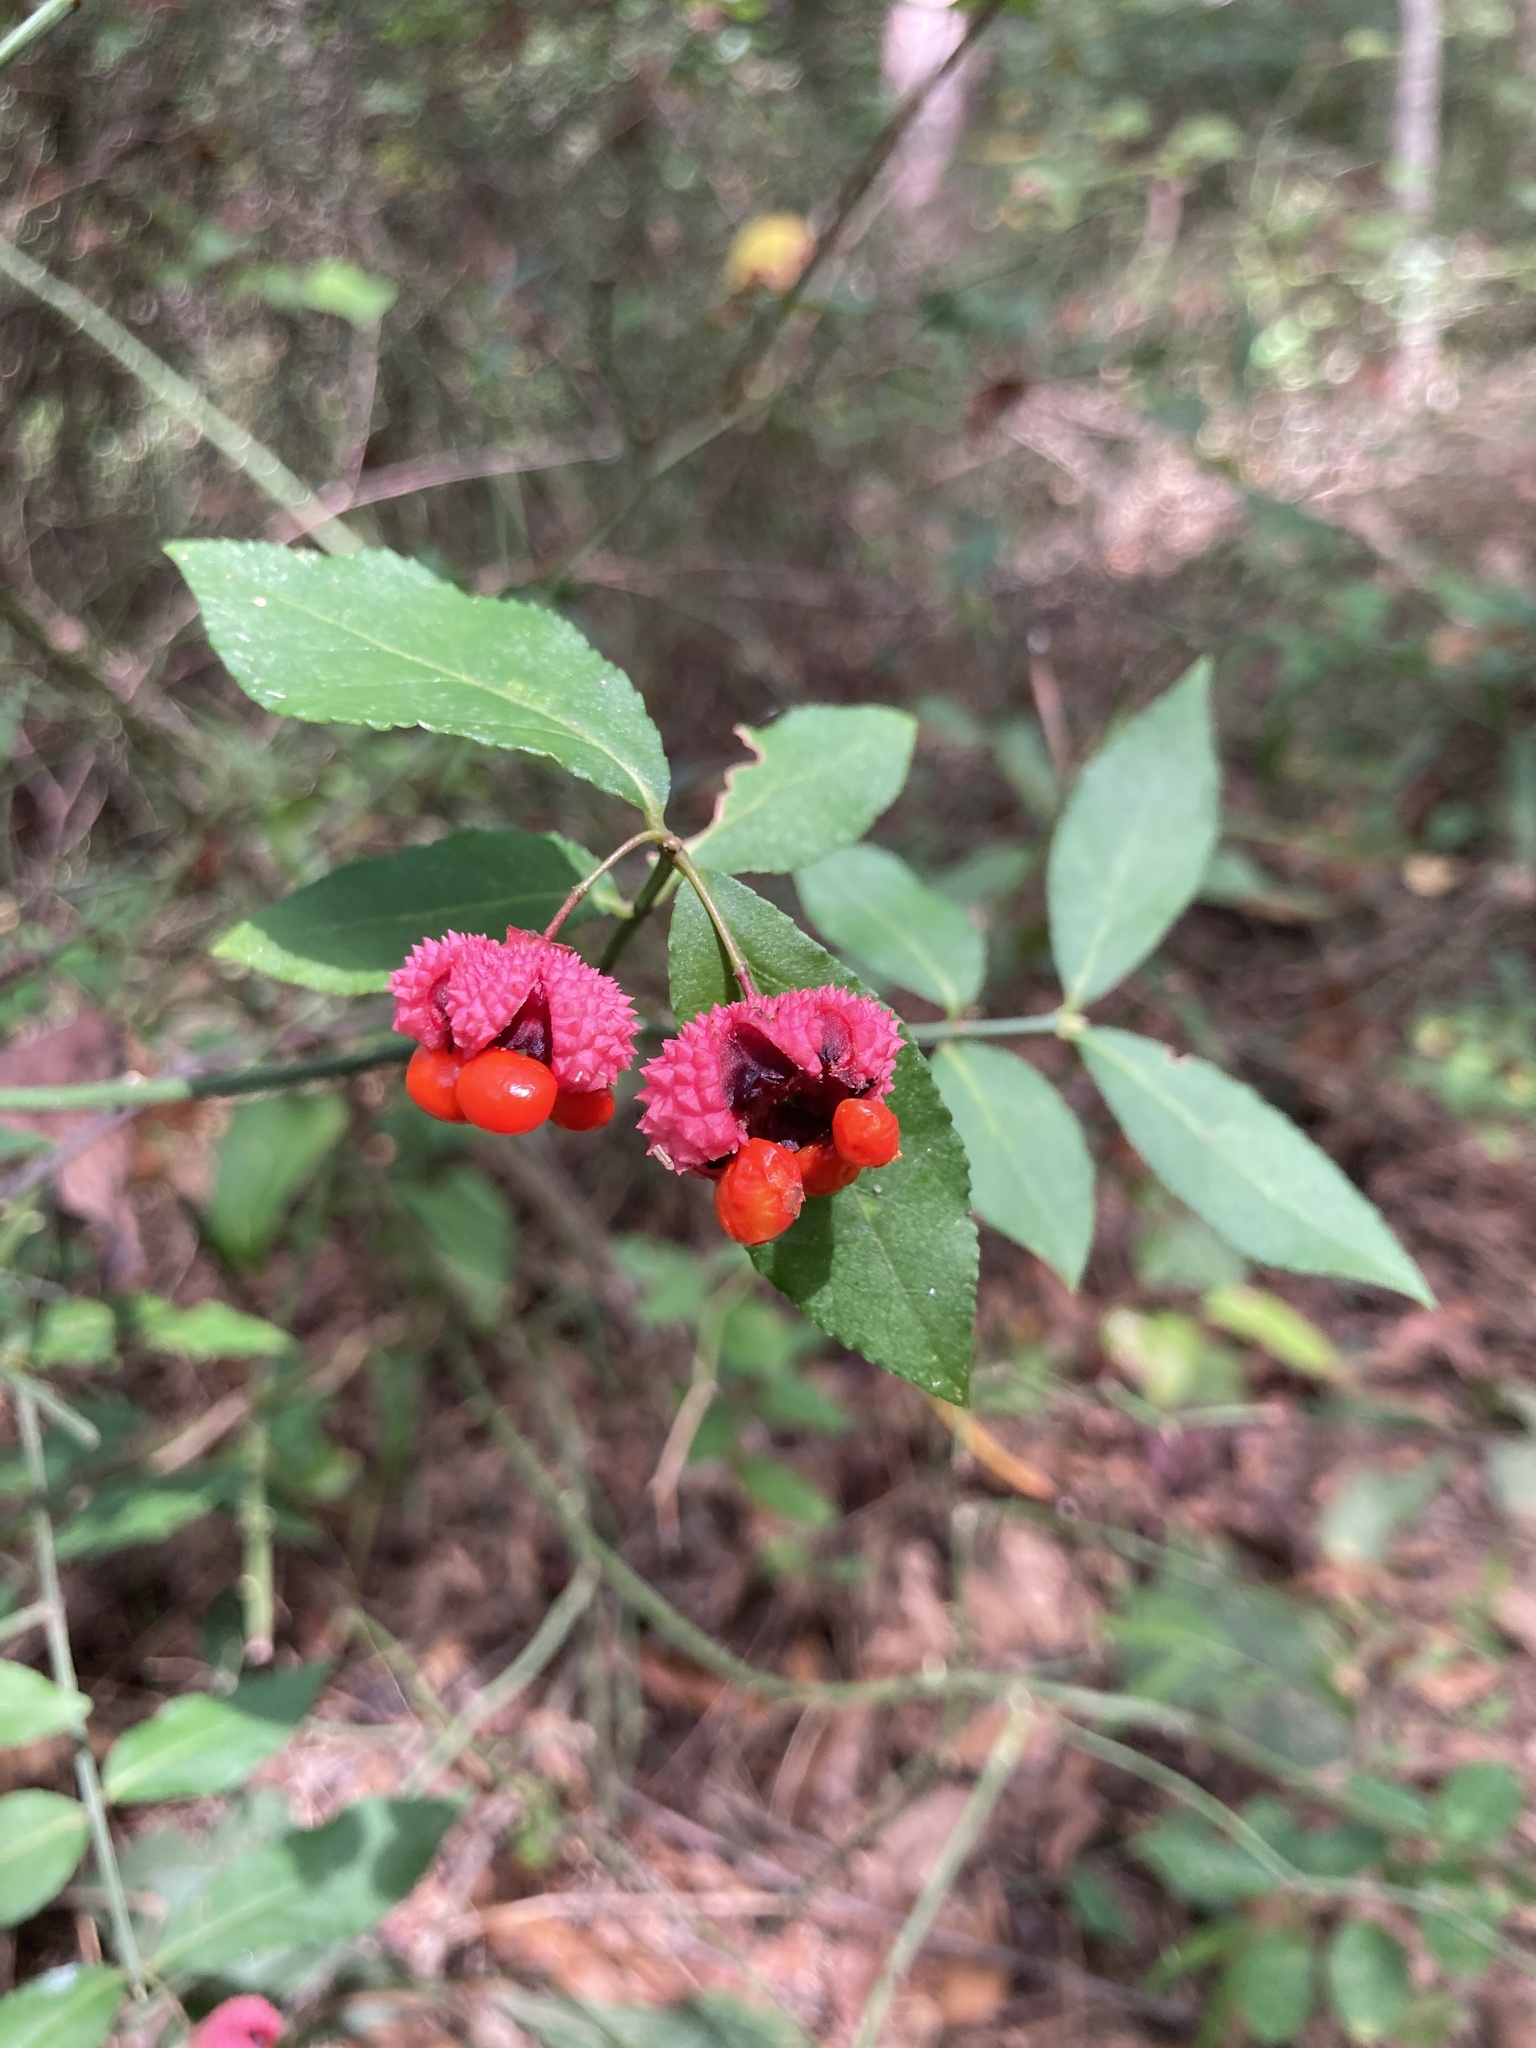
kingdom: Plantae
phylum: Tracheophyta
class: Magnoliopsida
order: Celastrales
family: Celastraceae
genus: Euonymus
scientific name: Euonymus americanus
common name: Bursting-heart
